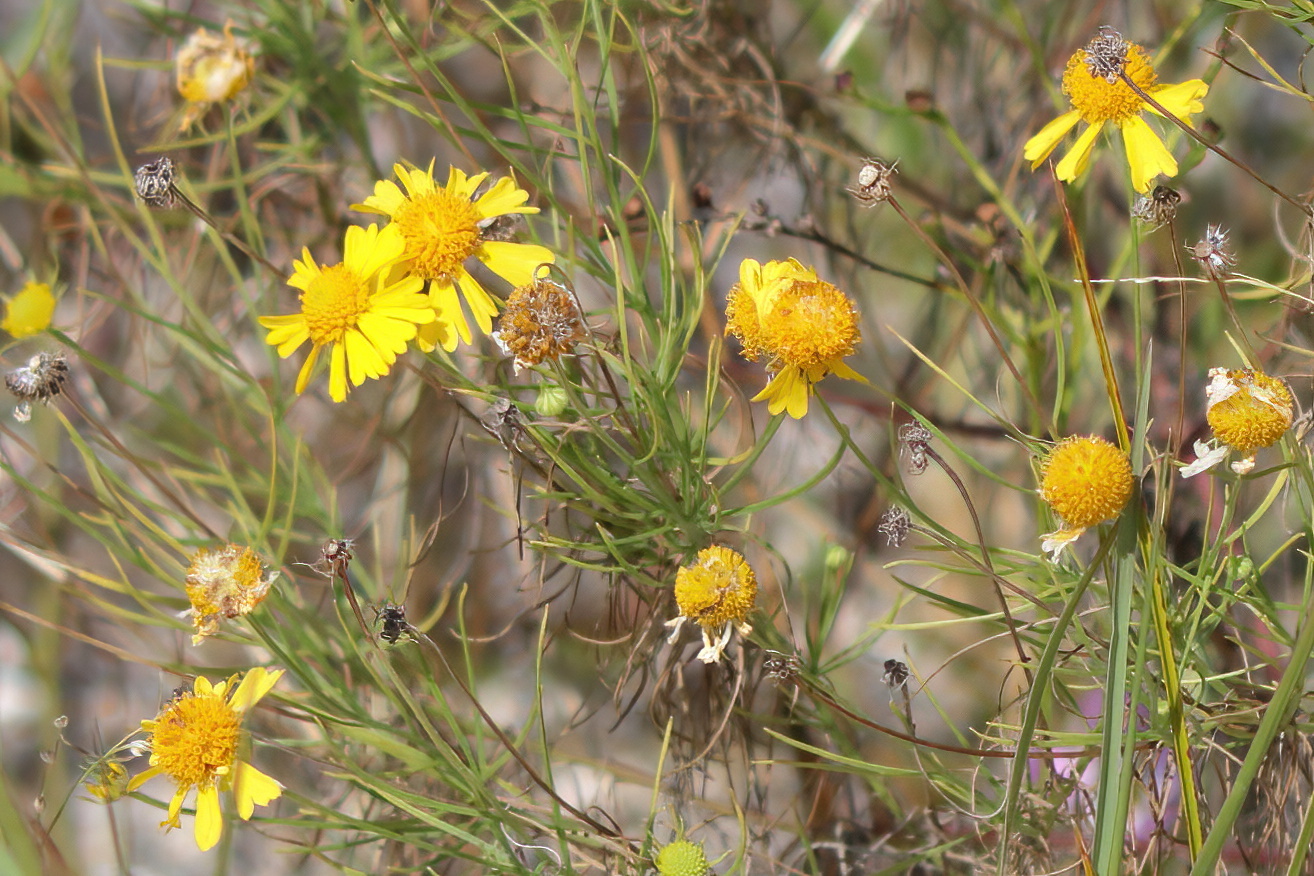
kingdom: Plantae
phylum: Tracheophyta
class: Magnoliopsida
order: Asterales
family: Asteraceae
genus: Helenium
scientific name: Helenium amarum
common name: Bitter sneezeweed
